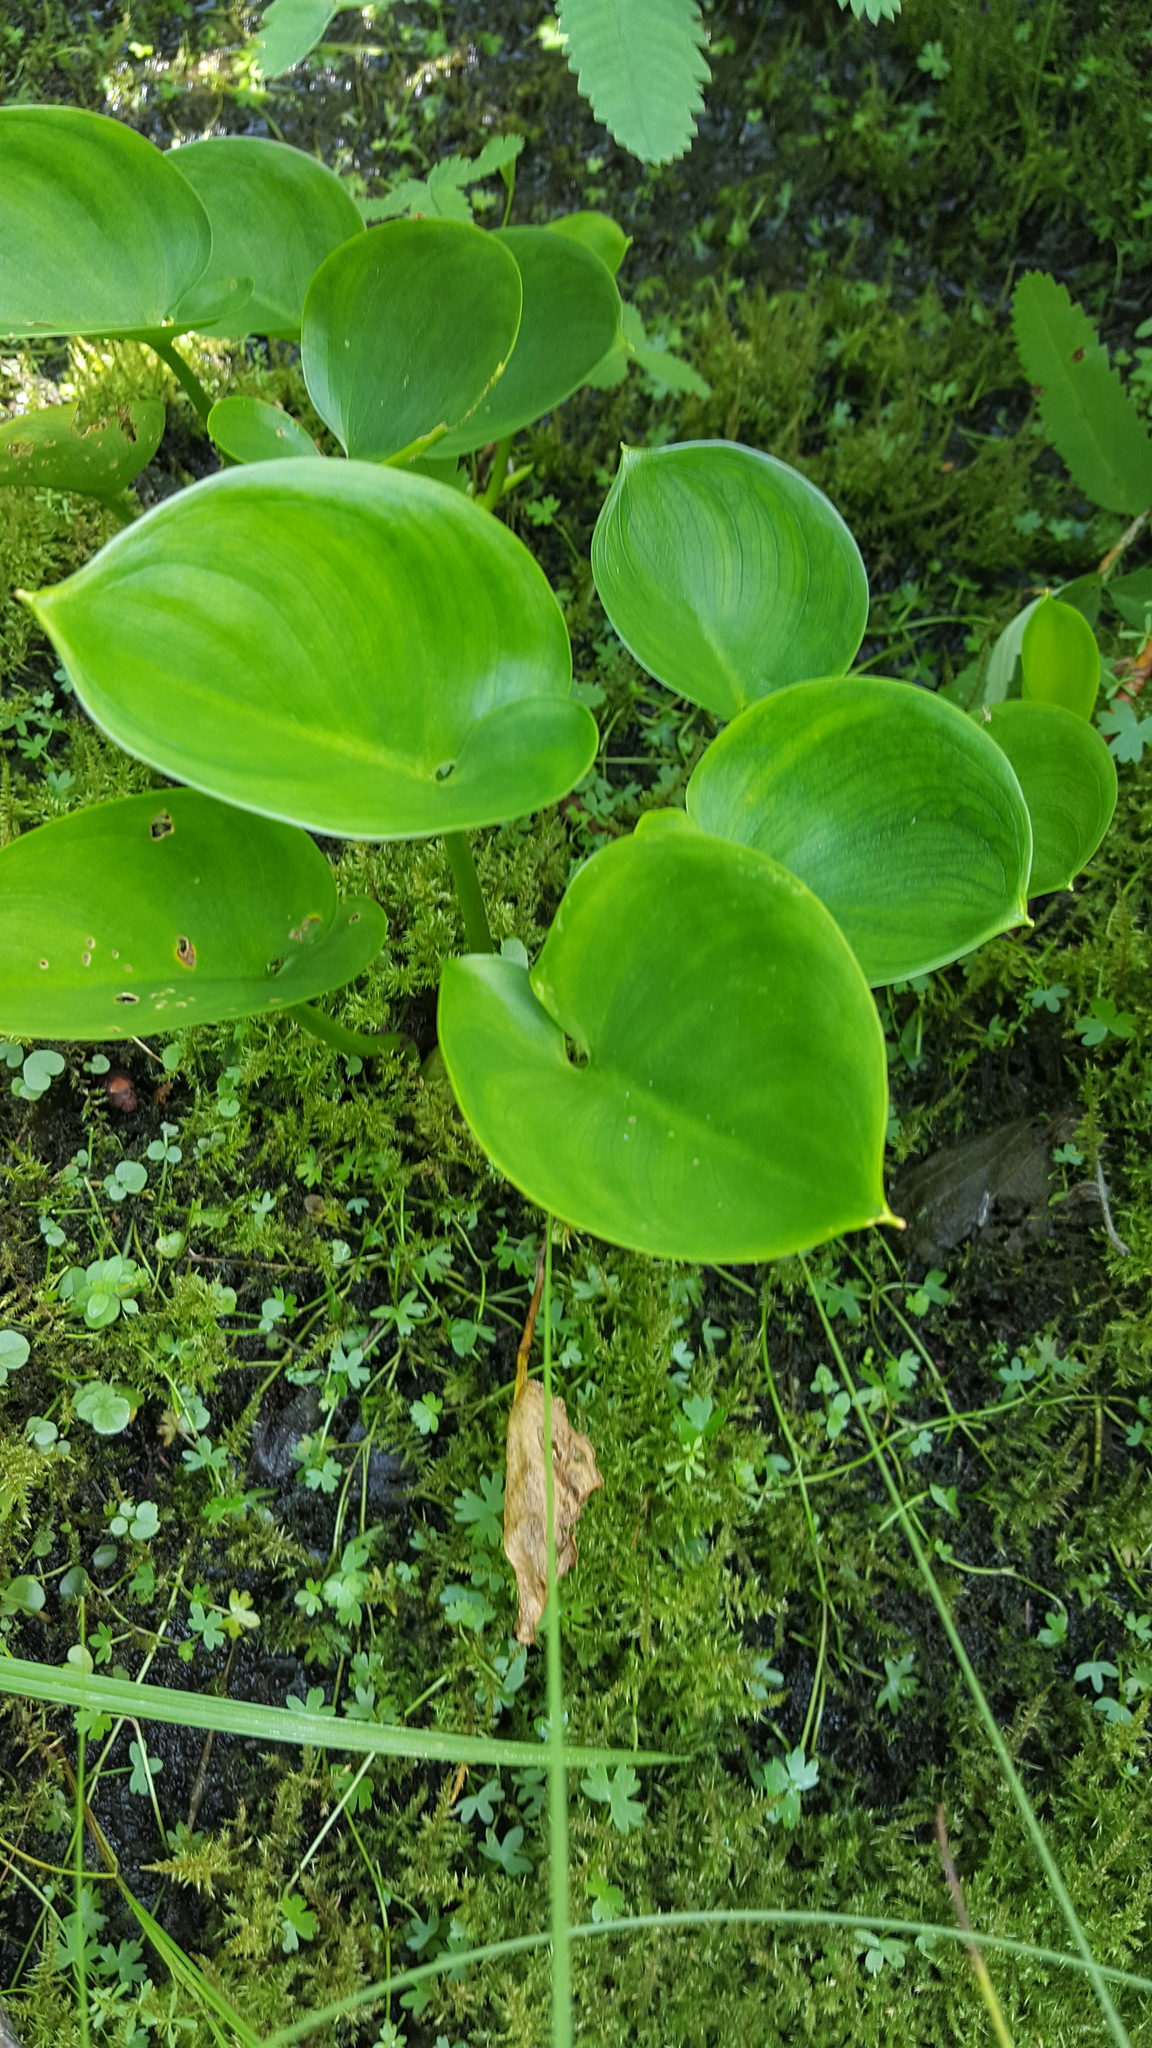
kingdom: Plantae
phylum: Tracheophyta
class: Liliopsida
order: Alismatales
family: Araceae
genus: Calla
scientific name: Calla palustris
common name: Bog arum
